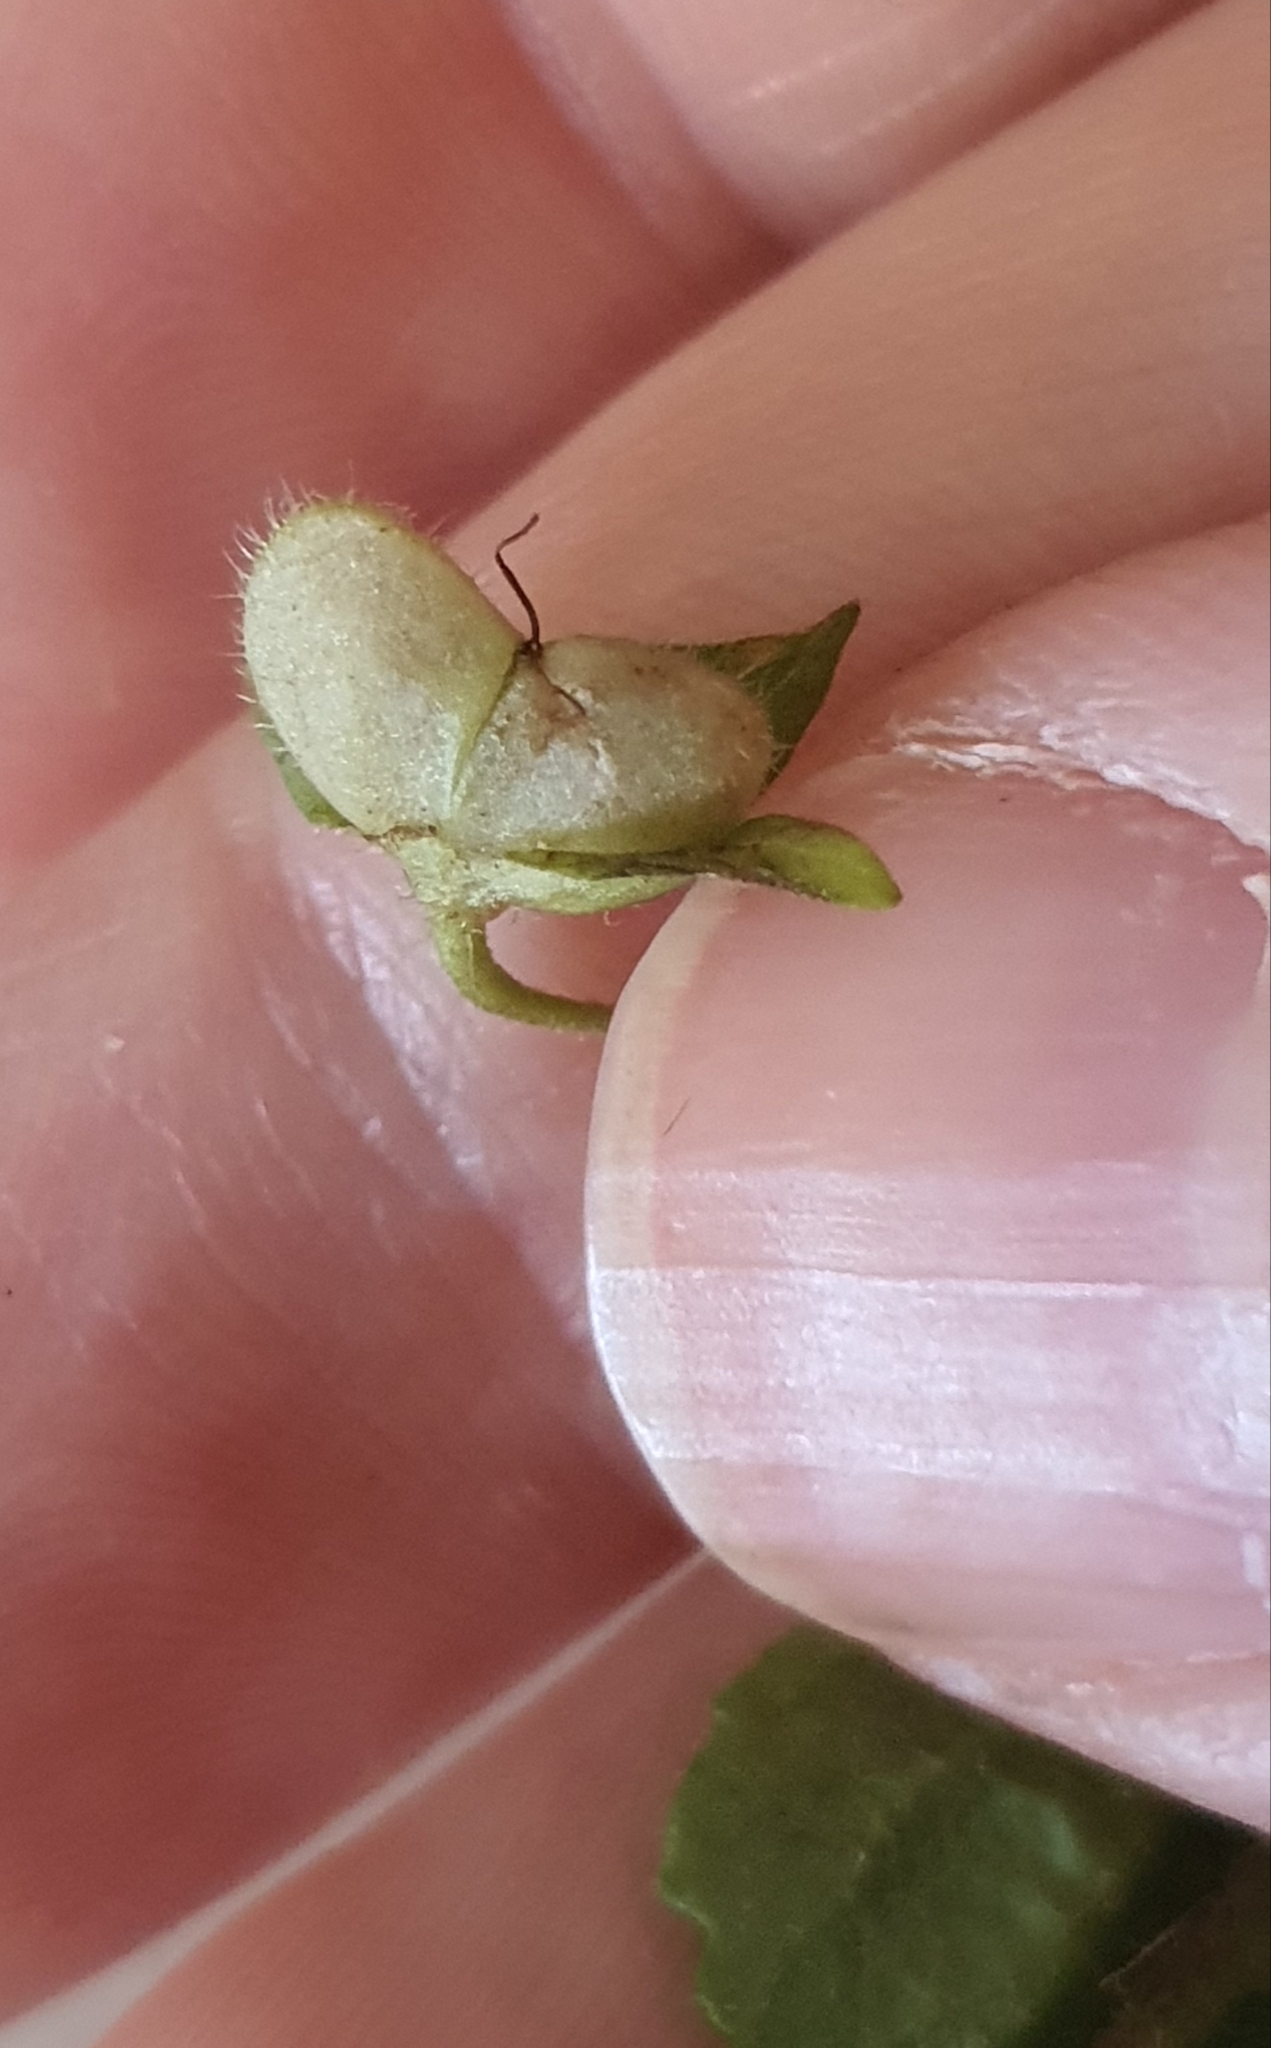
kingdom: Plantae
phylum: Tracheophyta
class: Magnoliopsida
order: Lamiales
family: Plantaginaceae
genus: Veronica
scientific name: Veronica persica
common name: Common field-speedwell
